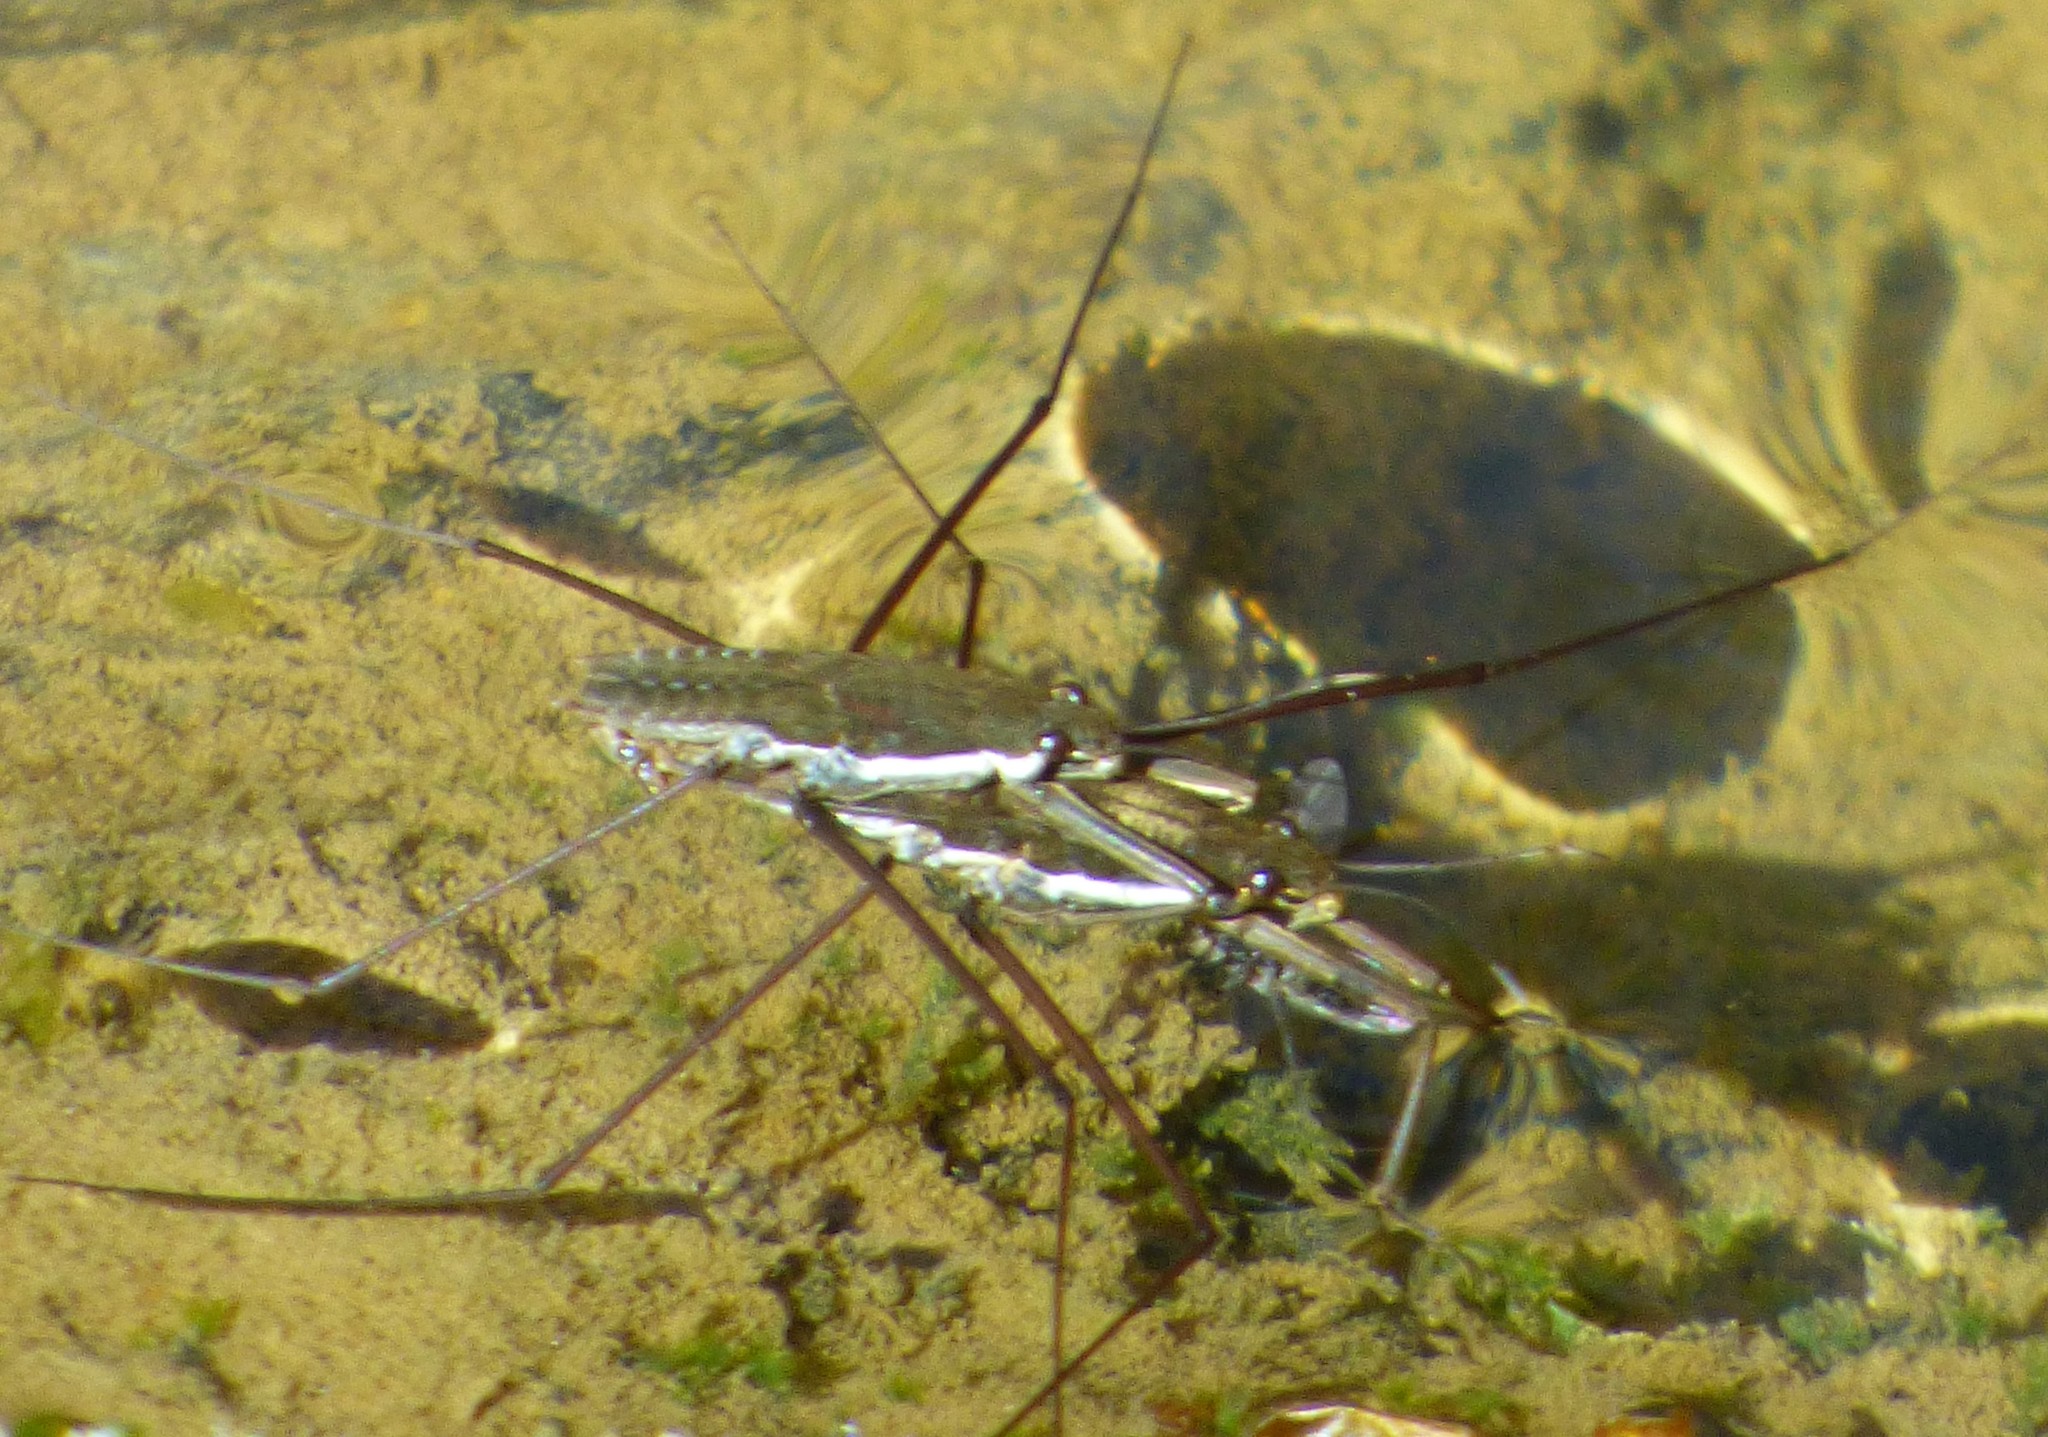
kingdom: Animalia
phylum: Arthropoda
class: Insecta
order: Hemiptera
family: Gerridae
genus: Aquarius
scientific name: Aquarius
